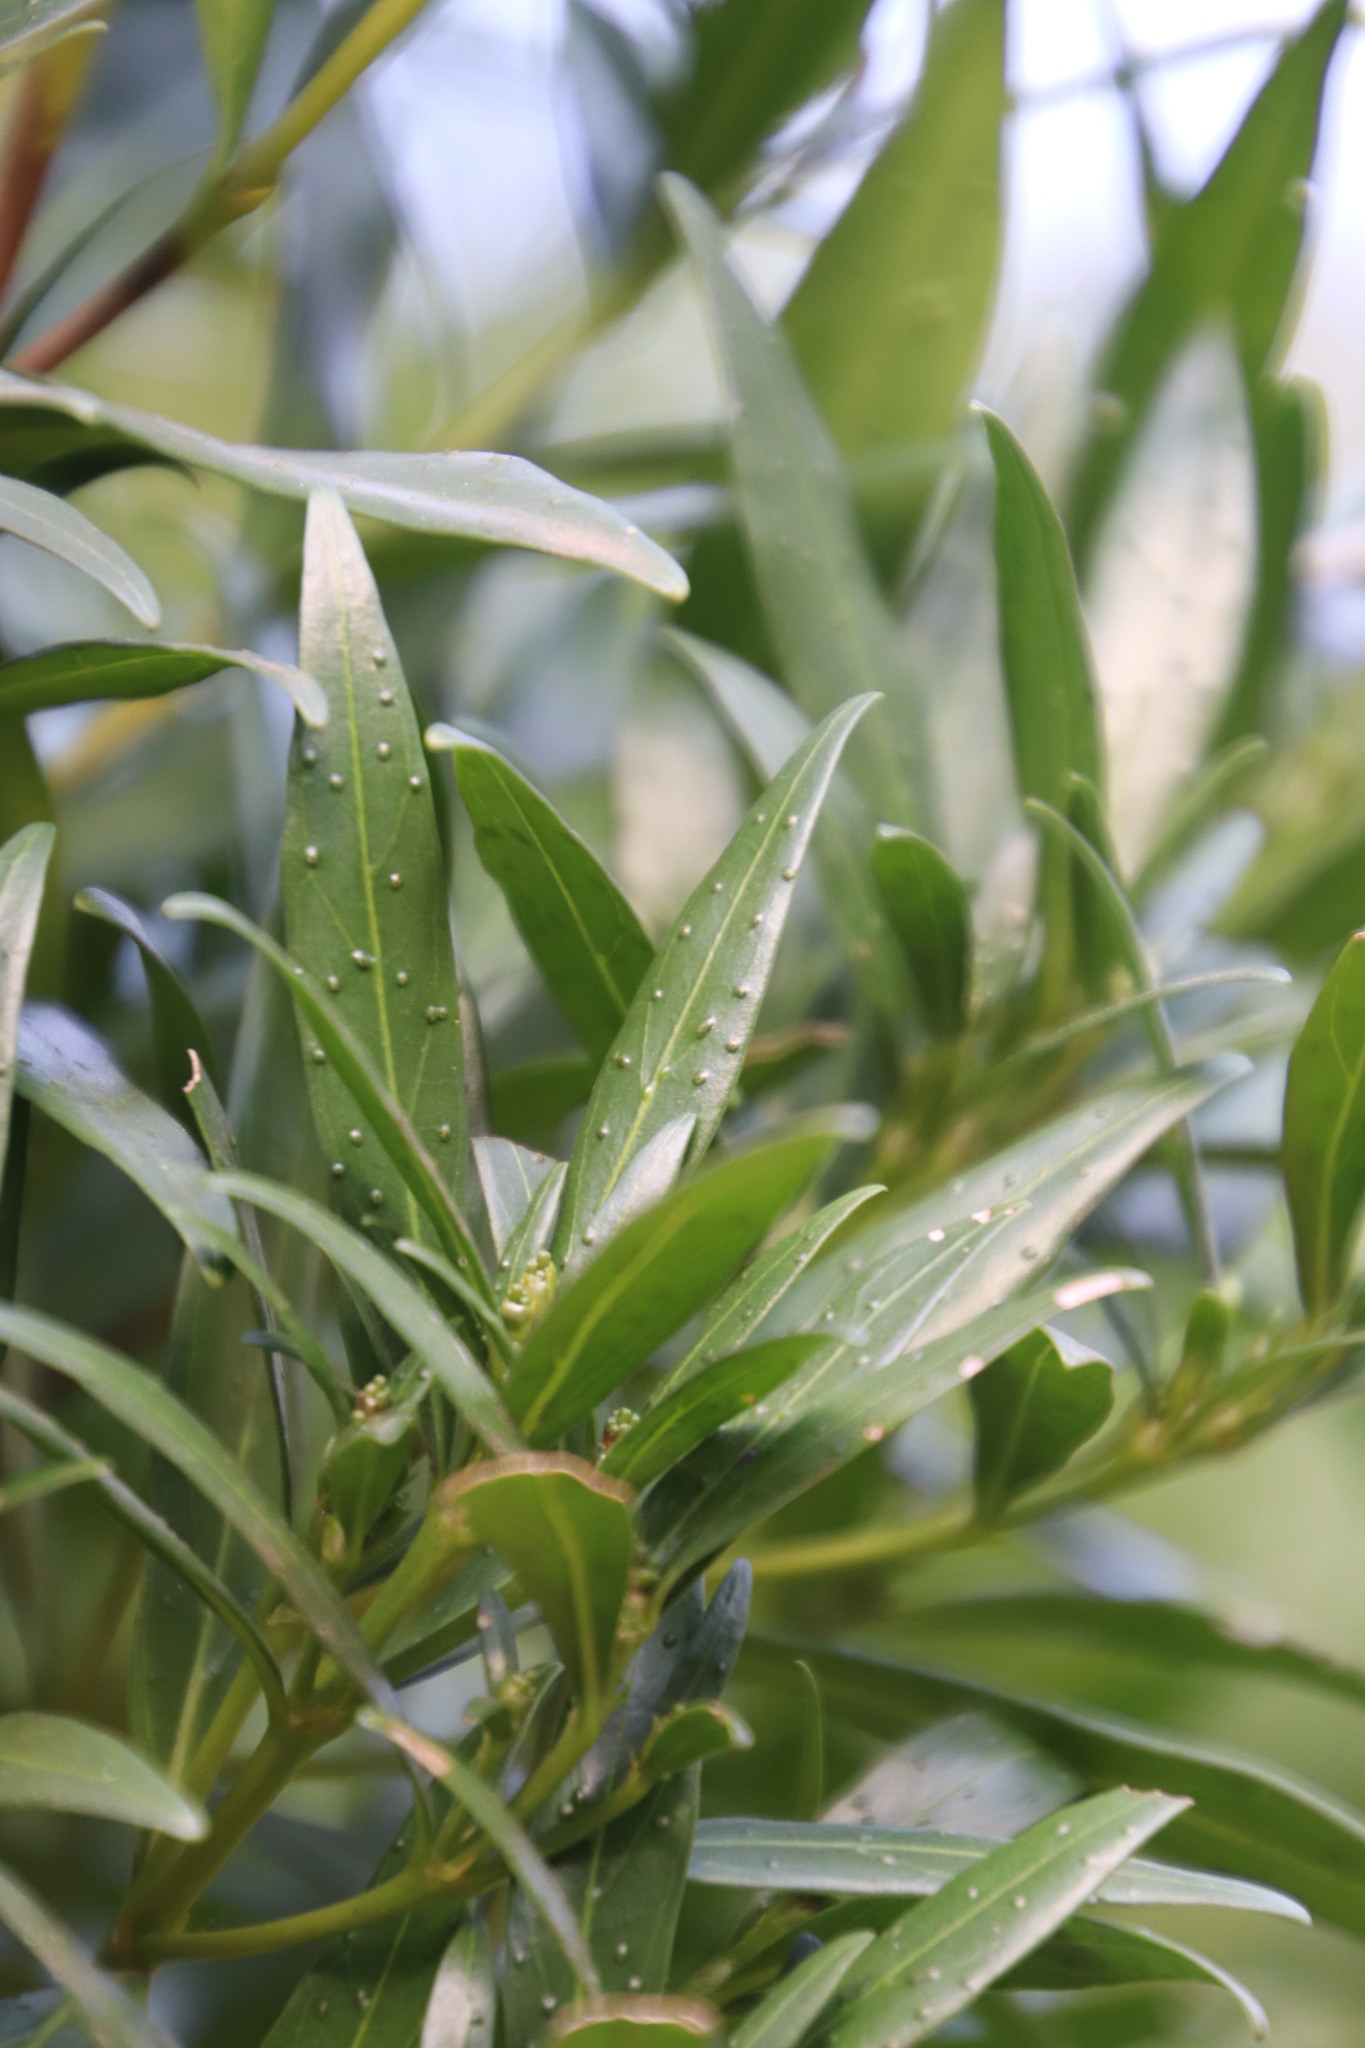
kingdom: Plantae
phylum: Tracheophyta
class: Magnoliopsida
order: Gentianales
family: Rubiaceae
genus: Pavetta
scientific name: Pavetta lanceolata
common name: Weeping brides-bush
